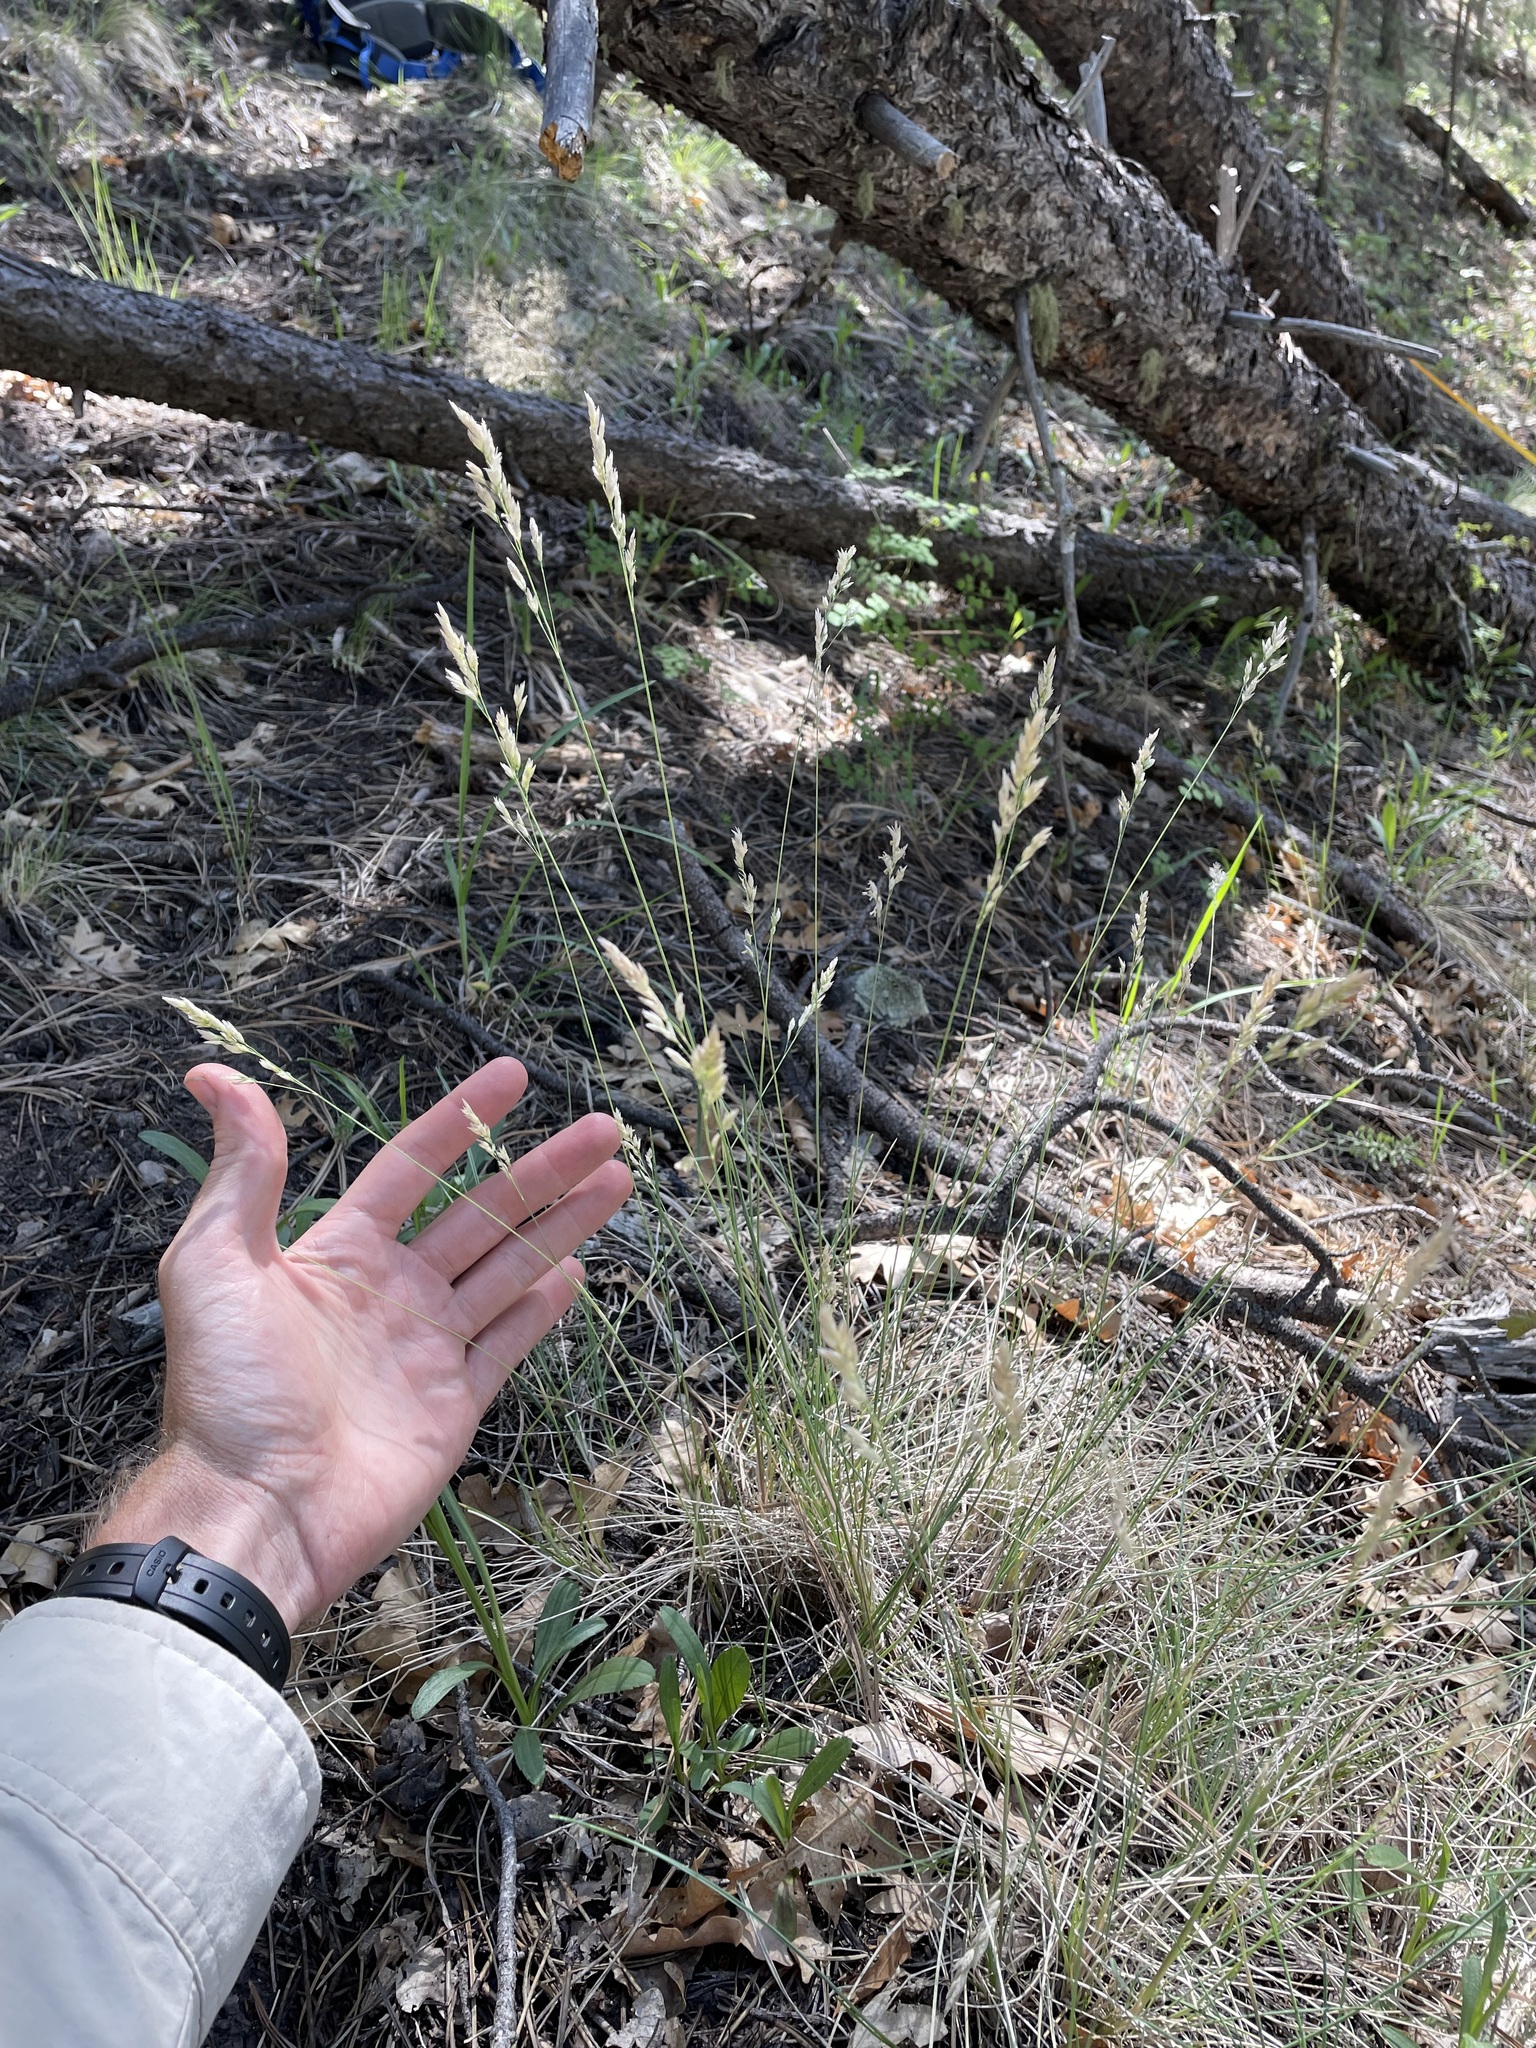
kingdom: Plantae
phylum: Tracheophyta
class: Liliopsida
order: Poales
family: Poaceae
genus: Poa
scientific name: Poa fendleriana
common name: Mutton bluegrass
